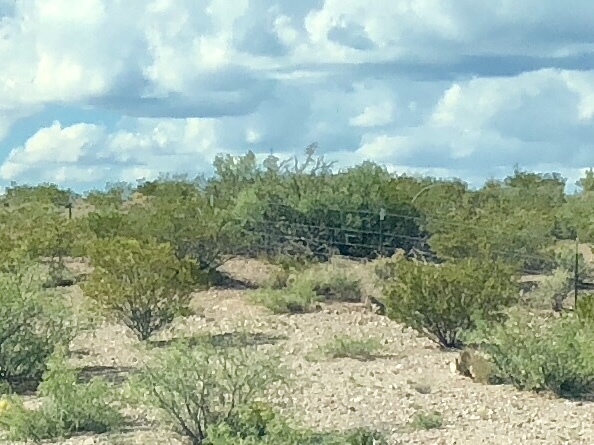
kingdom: Plantae
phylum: Tracheophyta
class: Magnoliopsida
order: Zygophyllales
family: Zygophyllaceae
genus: Larrea
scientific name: Larrea tridentata
